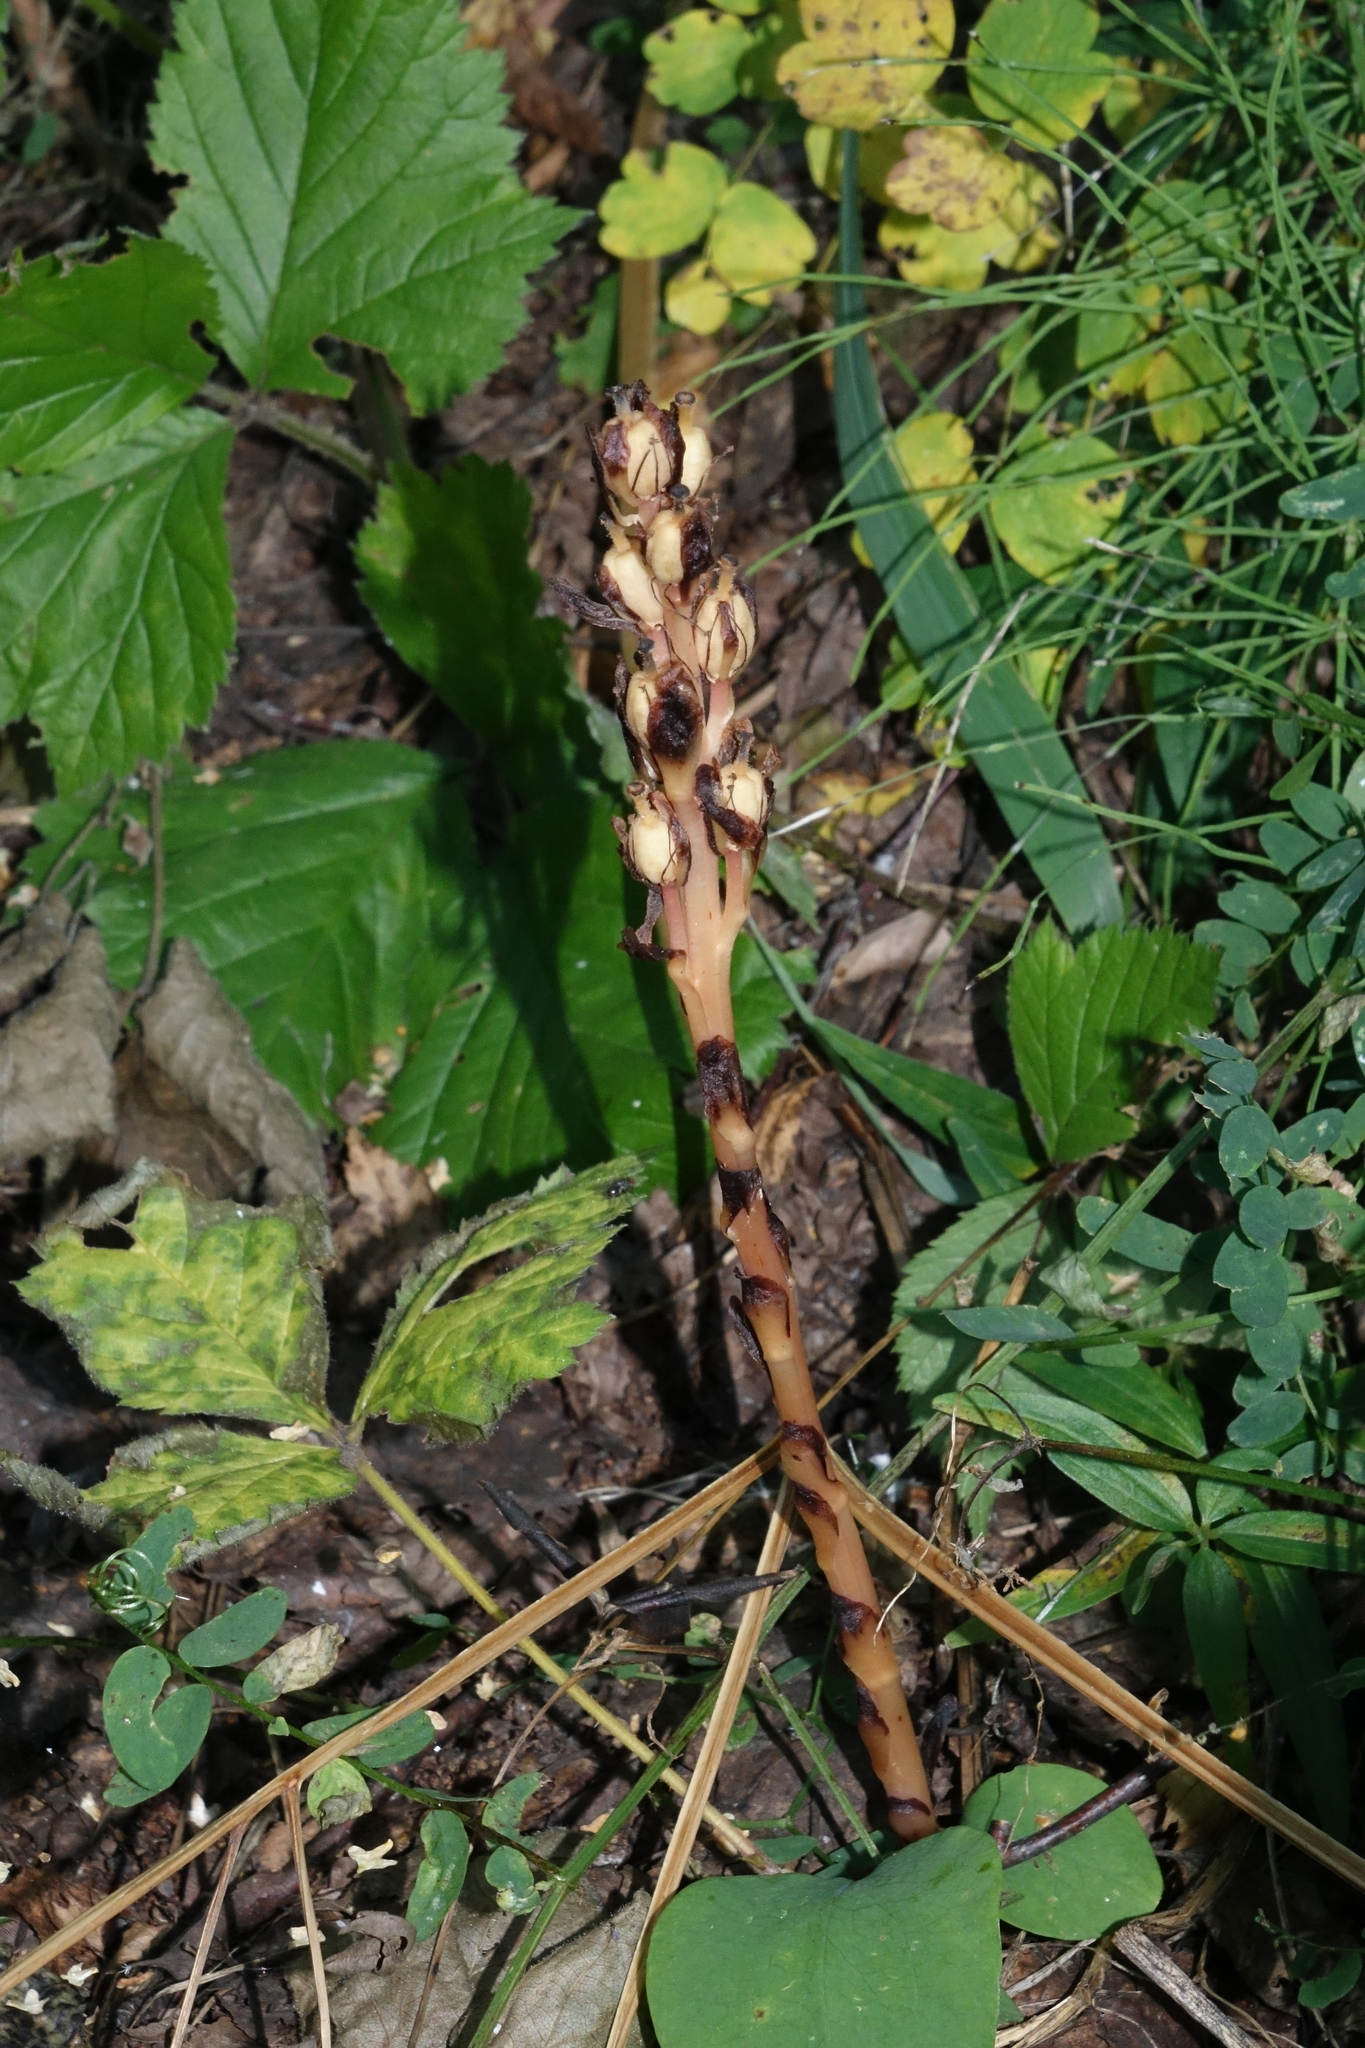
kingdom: Plantae
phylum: Tracheophyta
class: Magnoliopsida
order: Ericales
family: Ericaceae
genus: Hypopitys
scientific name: Hypopitys monotropa
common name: Yellow bird's-nest
